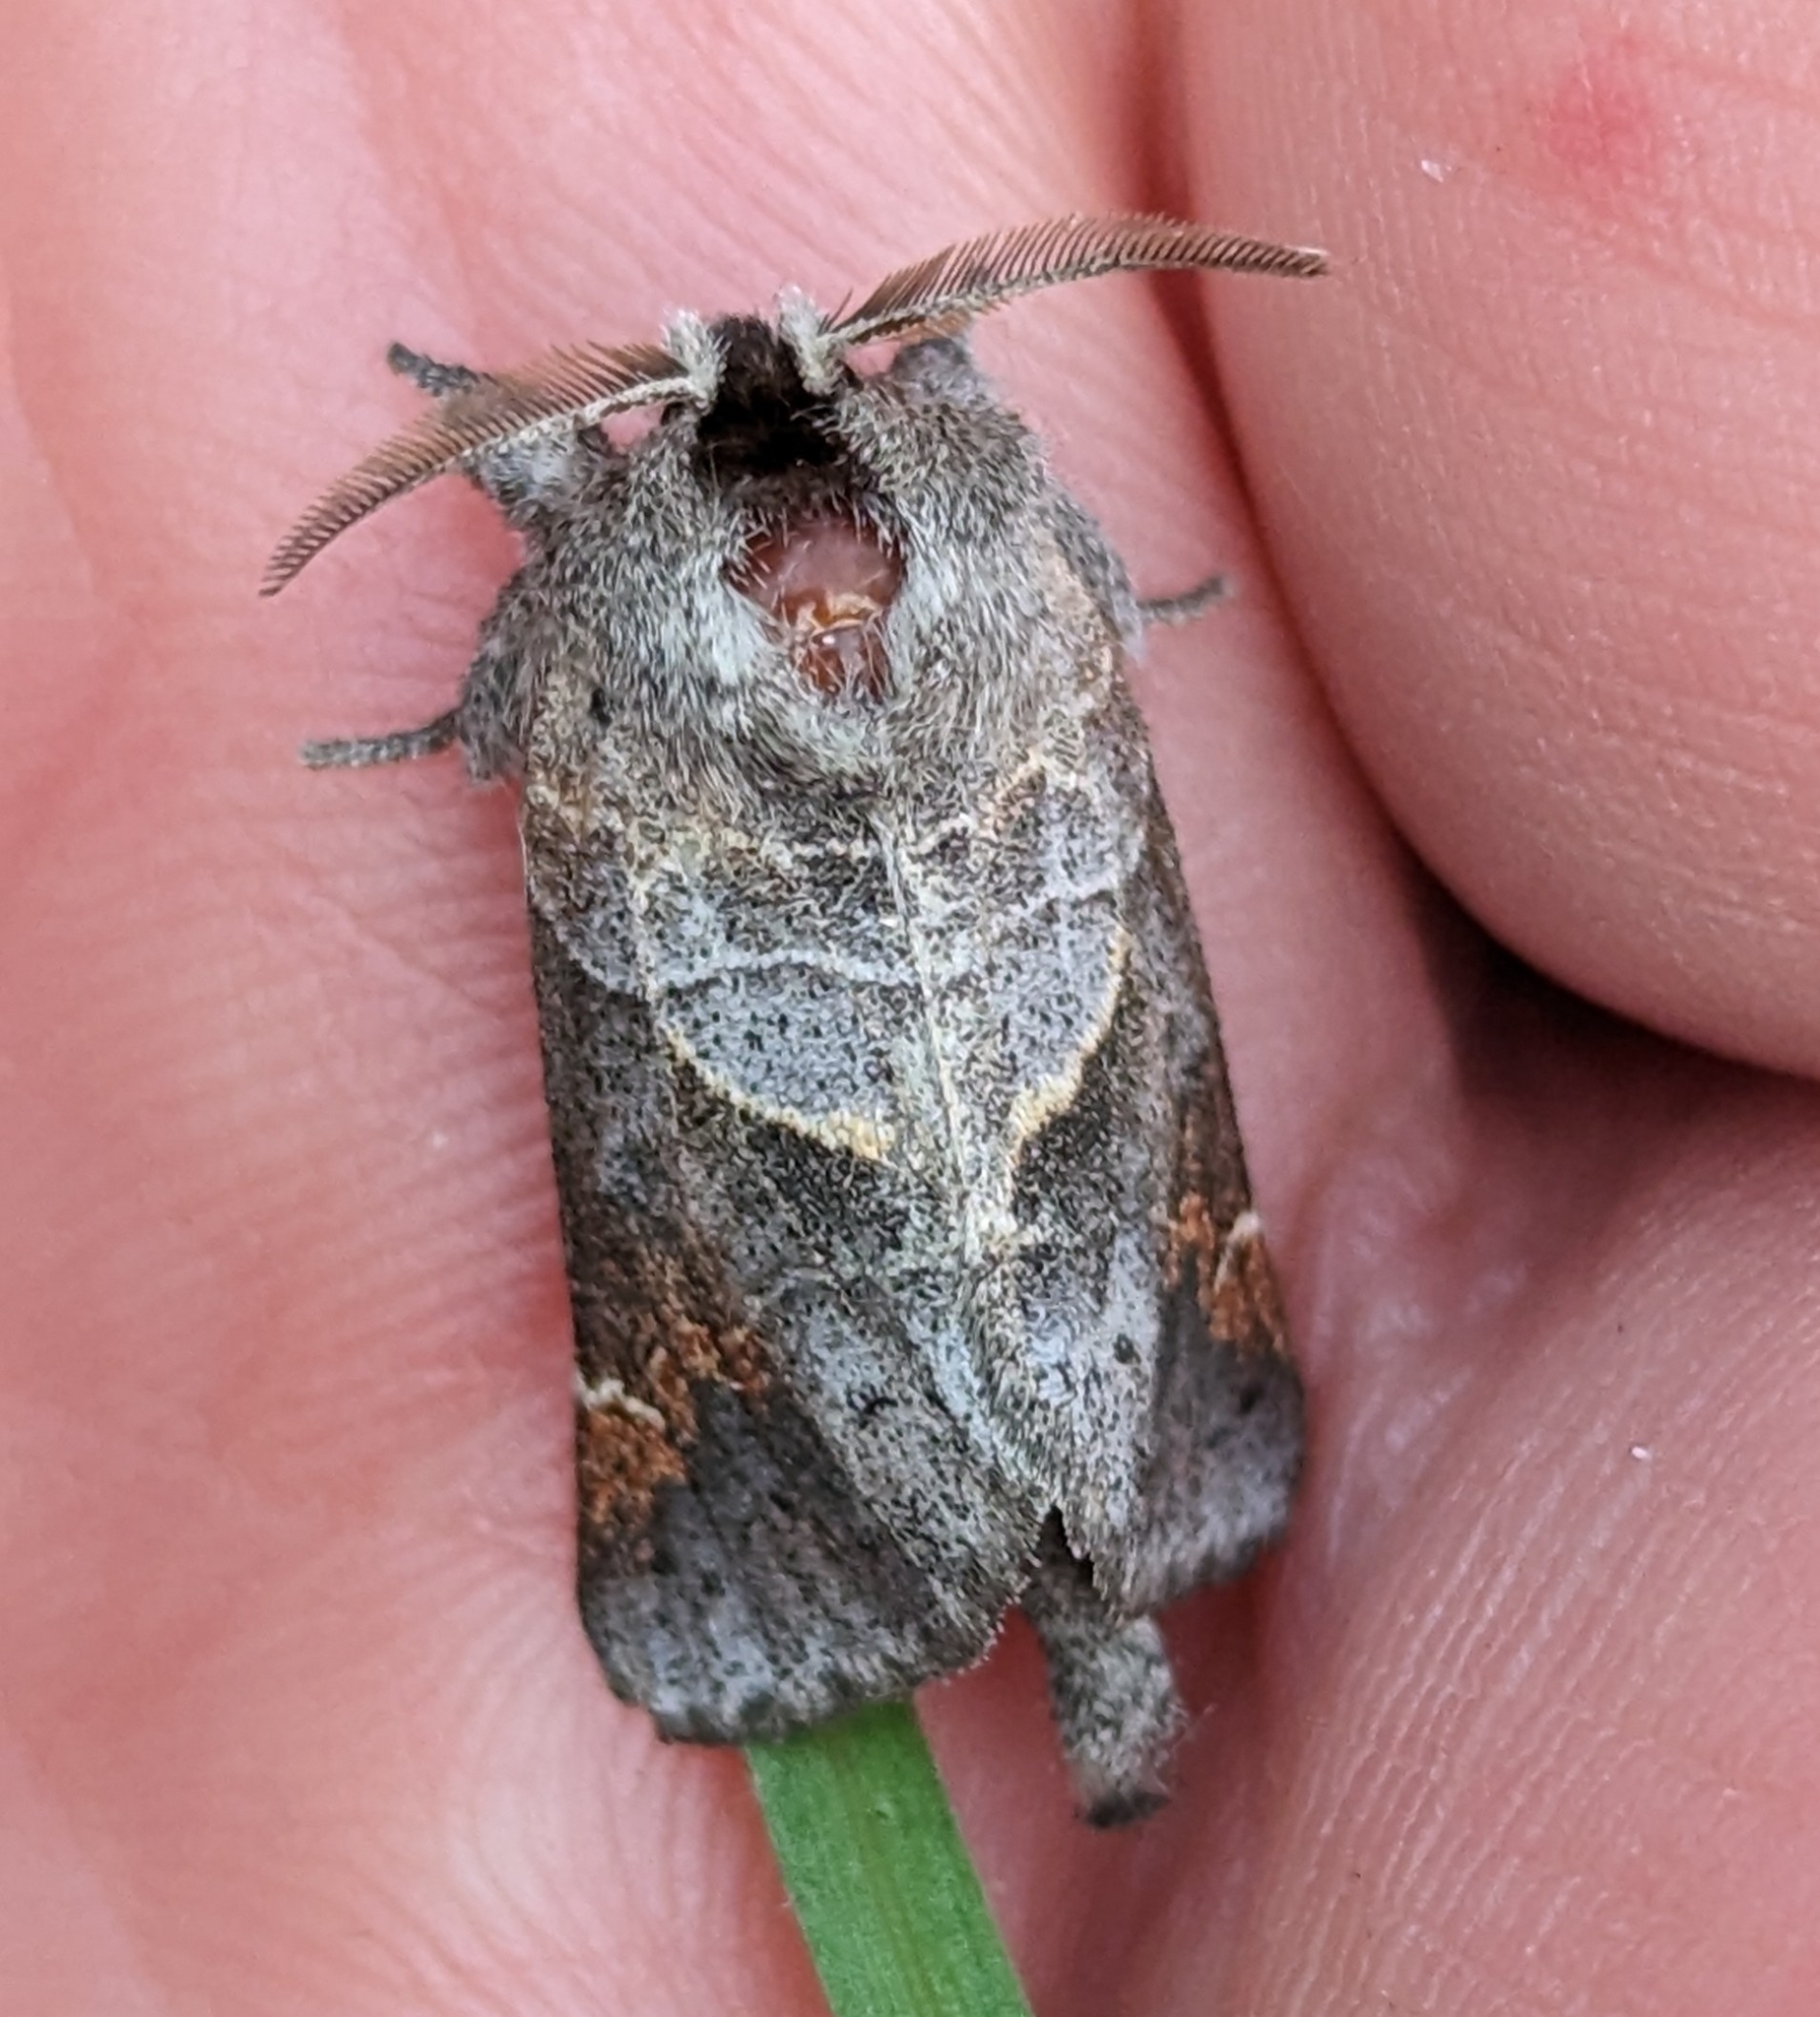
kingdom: Animalia
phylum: Arthropoda
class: Insecta
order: Lepidoptera
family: Notodontidae
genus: Clostera
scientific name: Clostera apicalis
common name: Apical prominent
